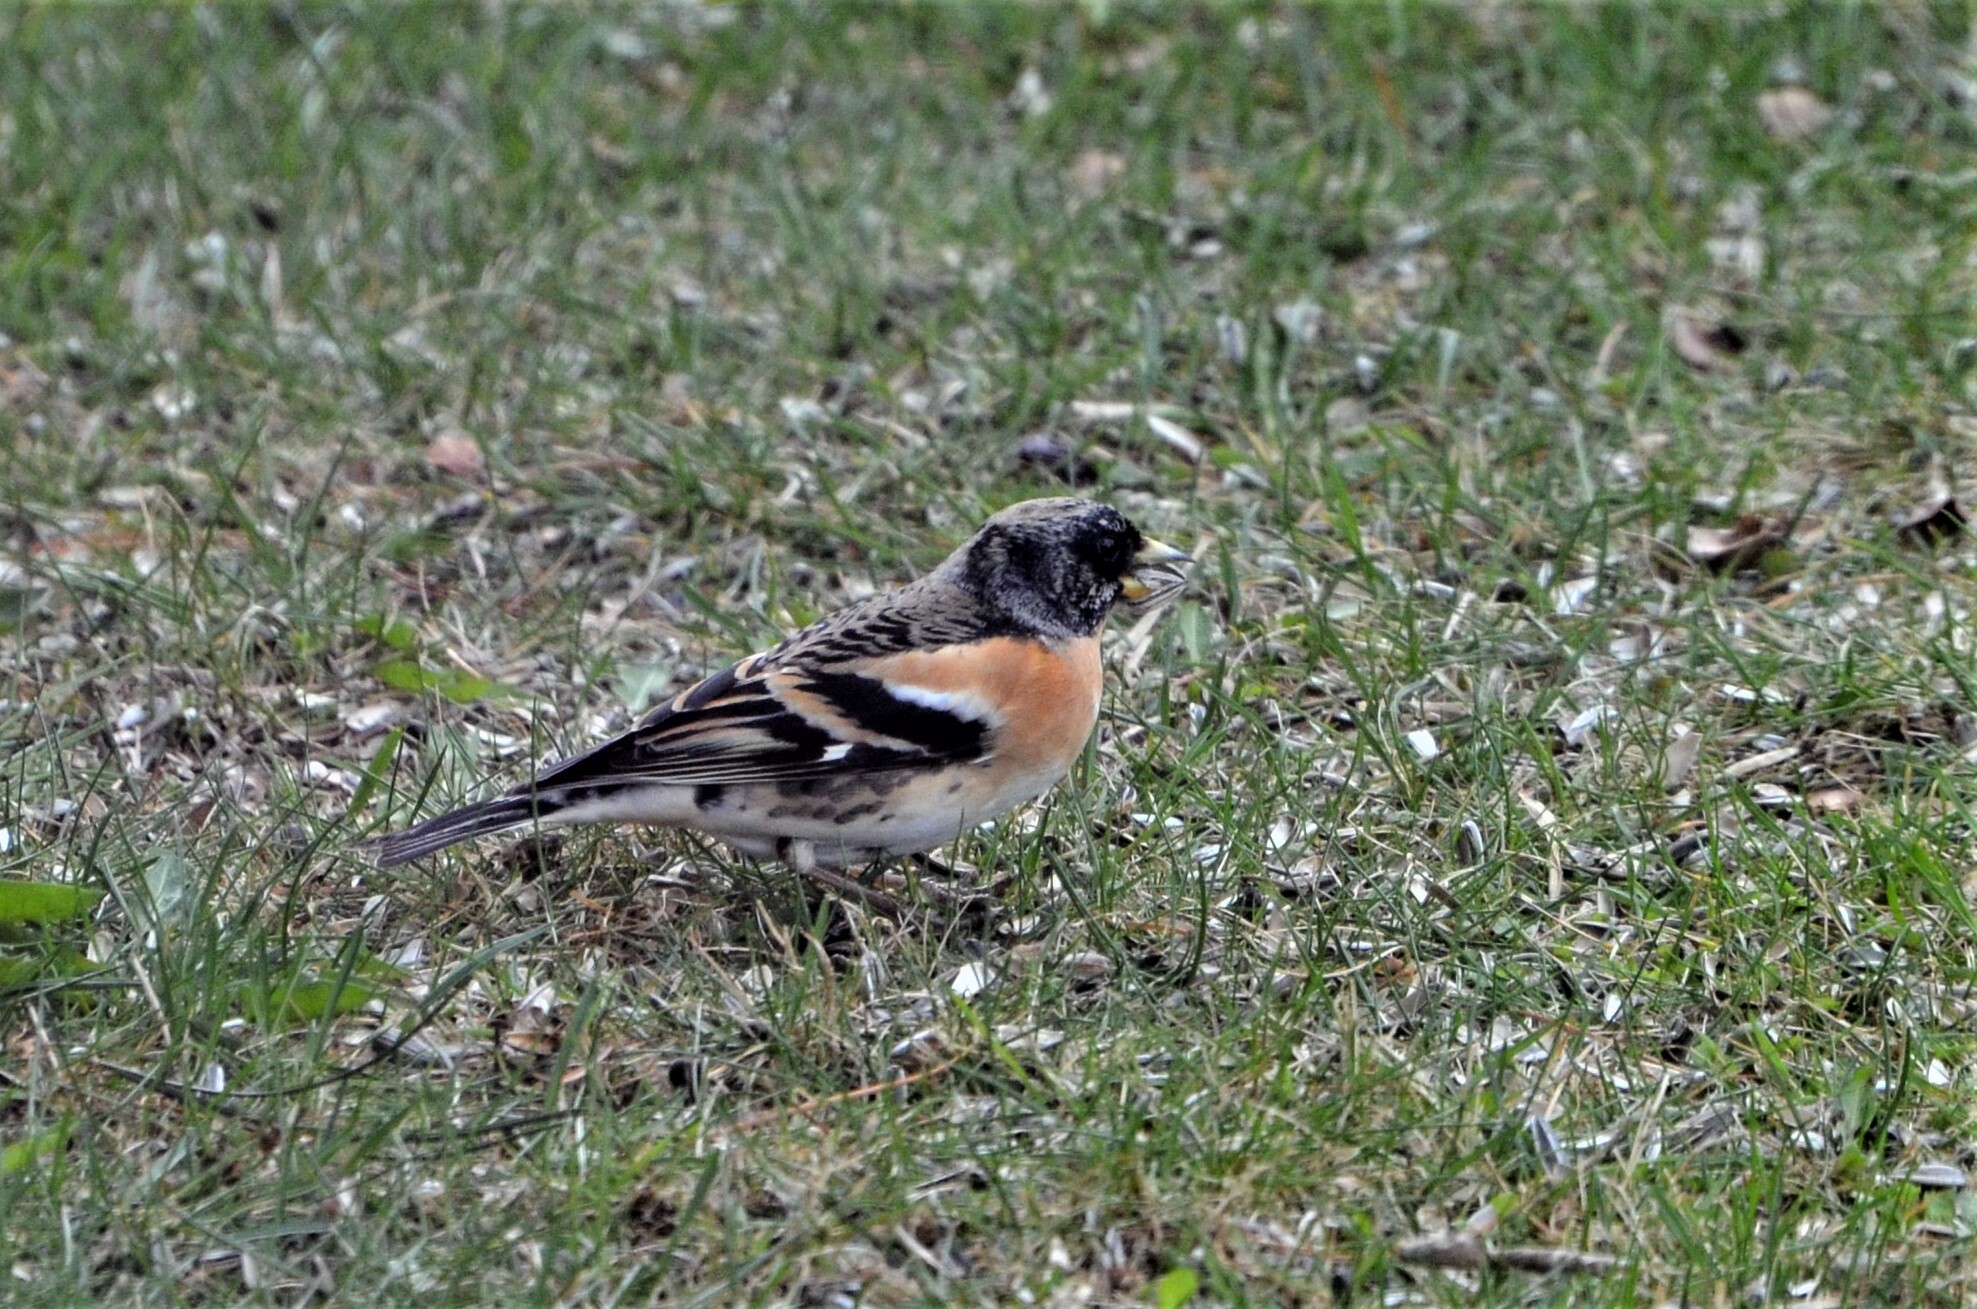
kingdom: Animalia
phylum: Chordata
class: Aves
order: Passeriformes
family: Fringillidae
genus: Fringilla
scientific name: Fringilla montifringilla
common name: Brambling
